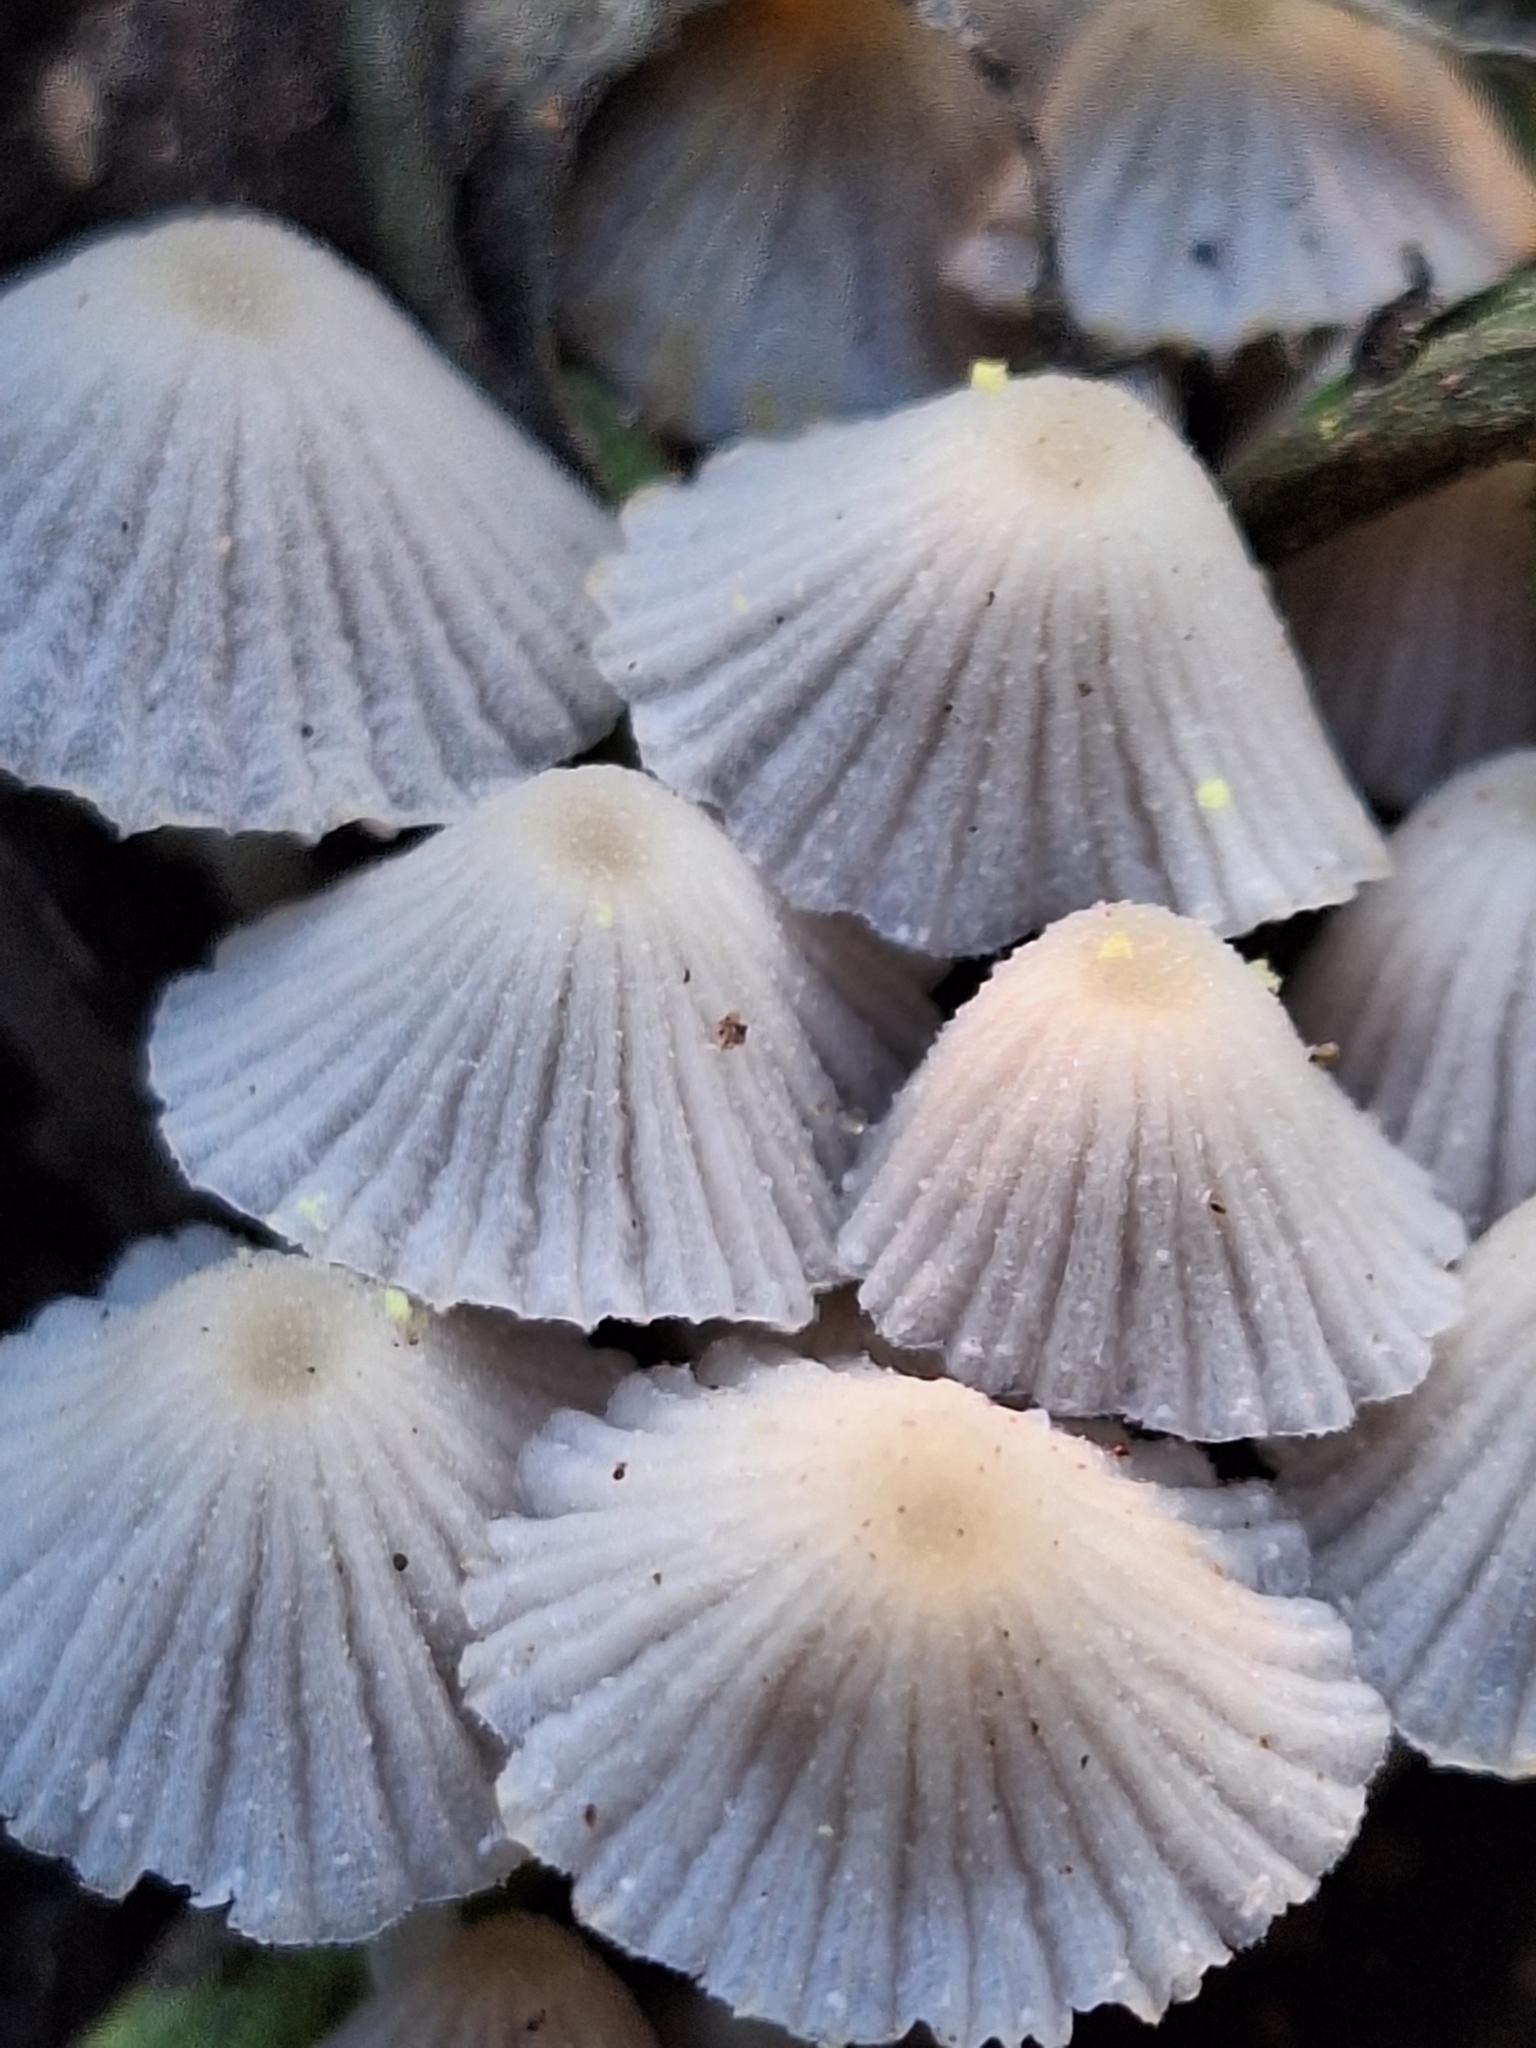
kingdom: Fungi
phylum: Basidiomycota
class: Agaricomycetes
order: Agaricales
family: Psathyrellaceae
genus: Coprinellus
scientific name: Coprinellus disseminatus
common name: Fairies' bonnets
